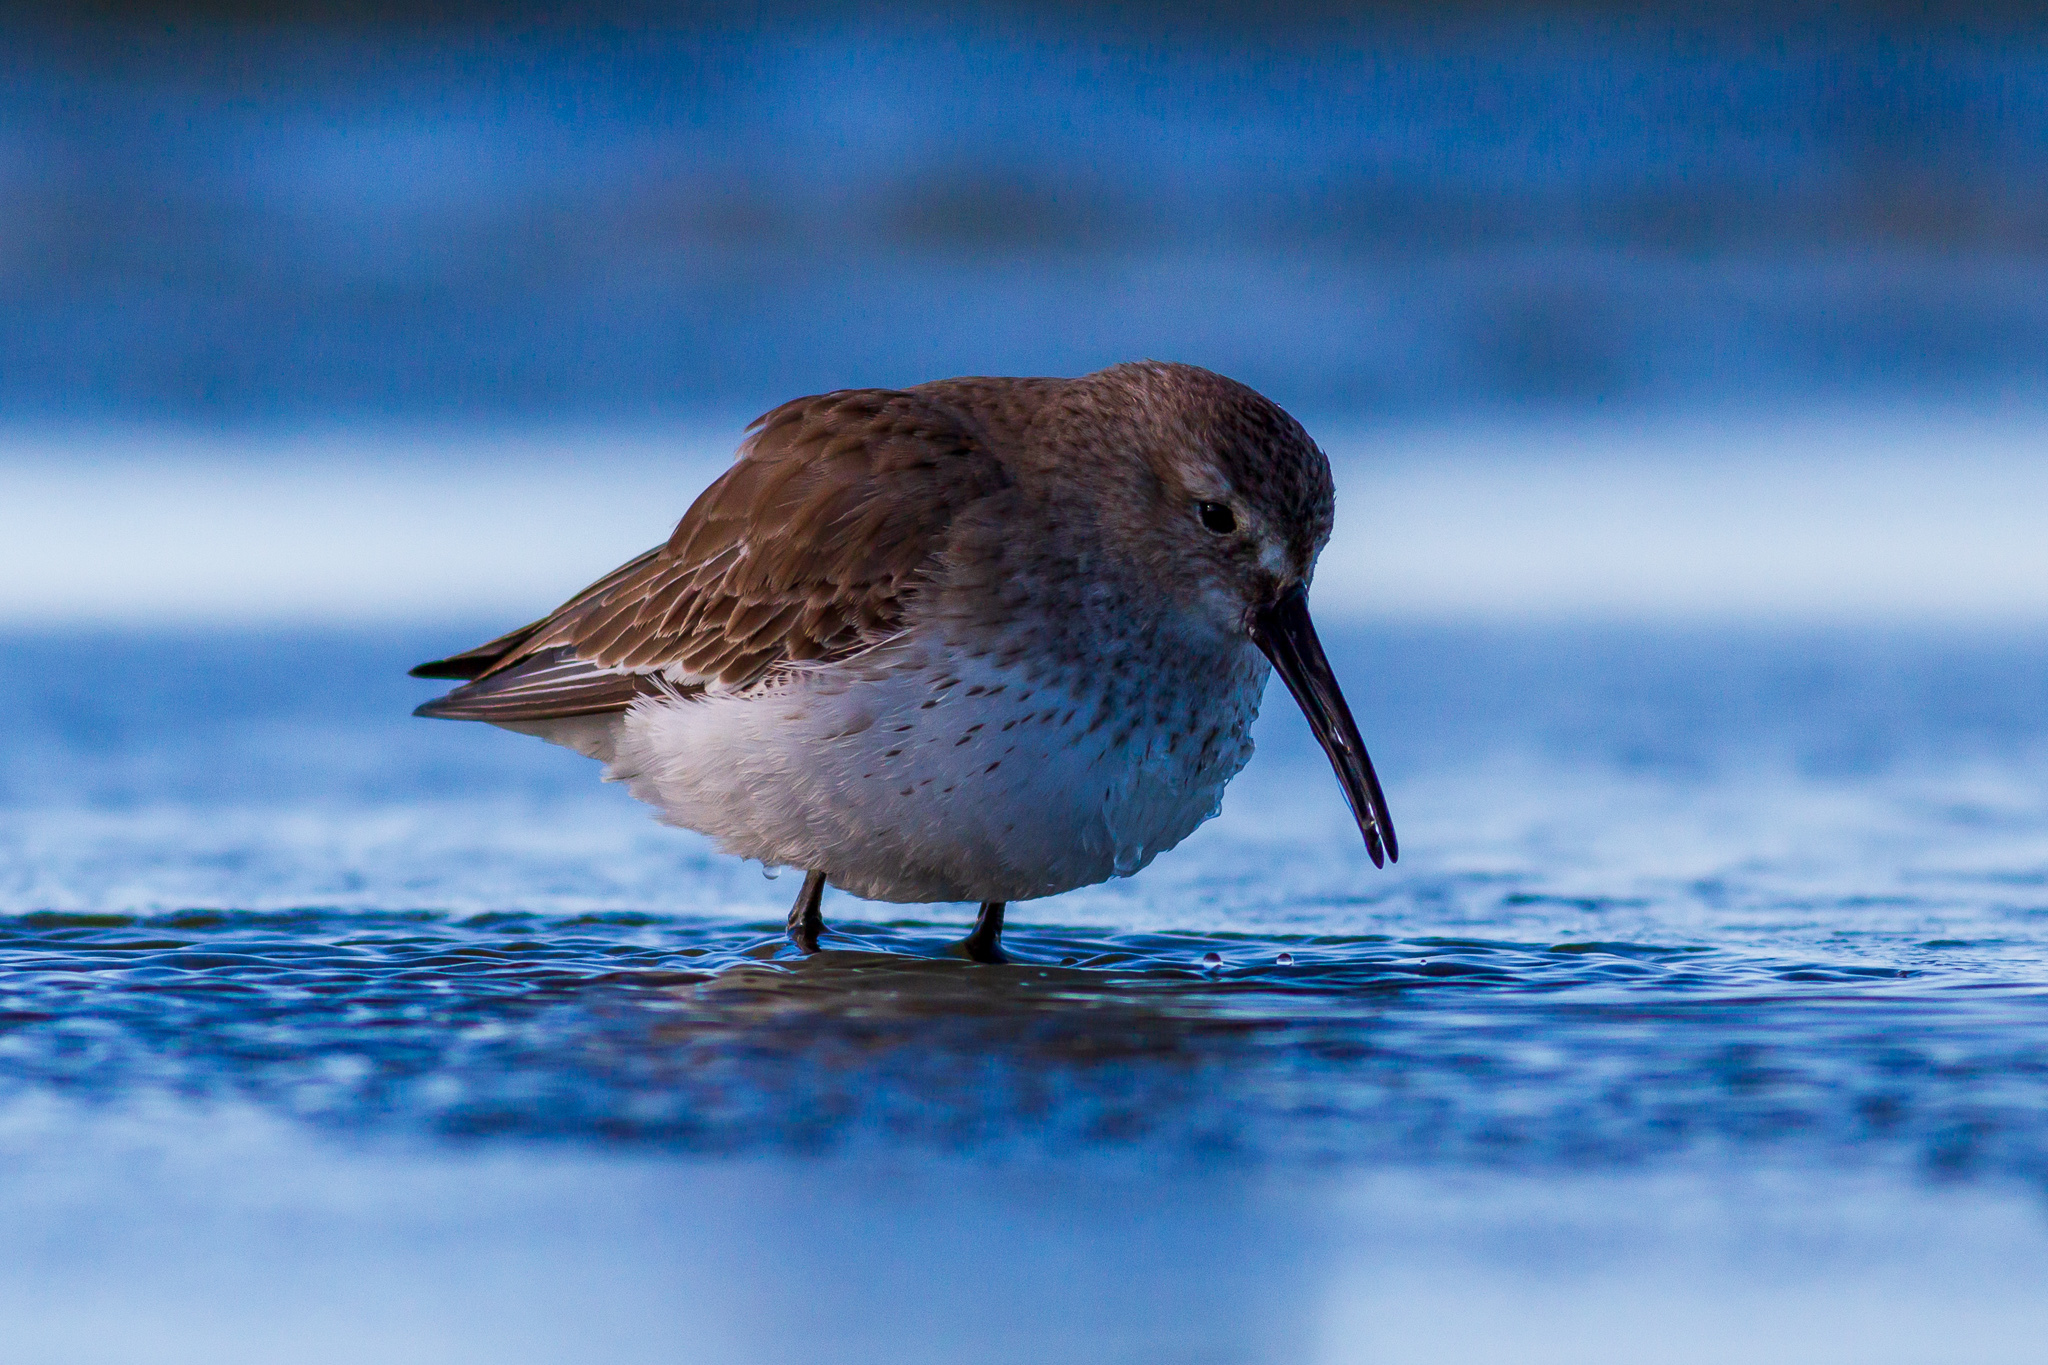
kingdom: Animalia
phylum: Chordata
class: Aves
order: Charadriiformes
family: Scolopacidae
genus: Calidris
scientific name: Calidris alpina
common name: Dunlin
